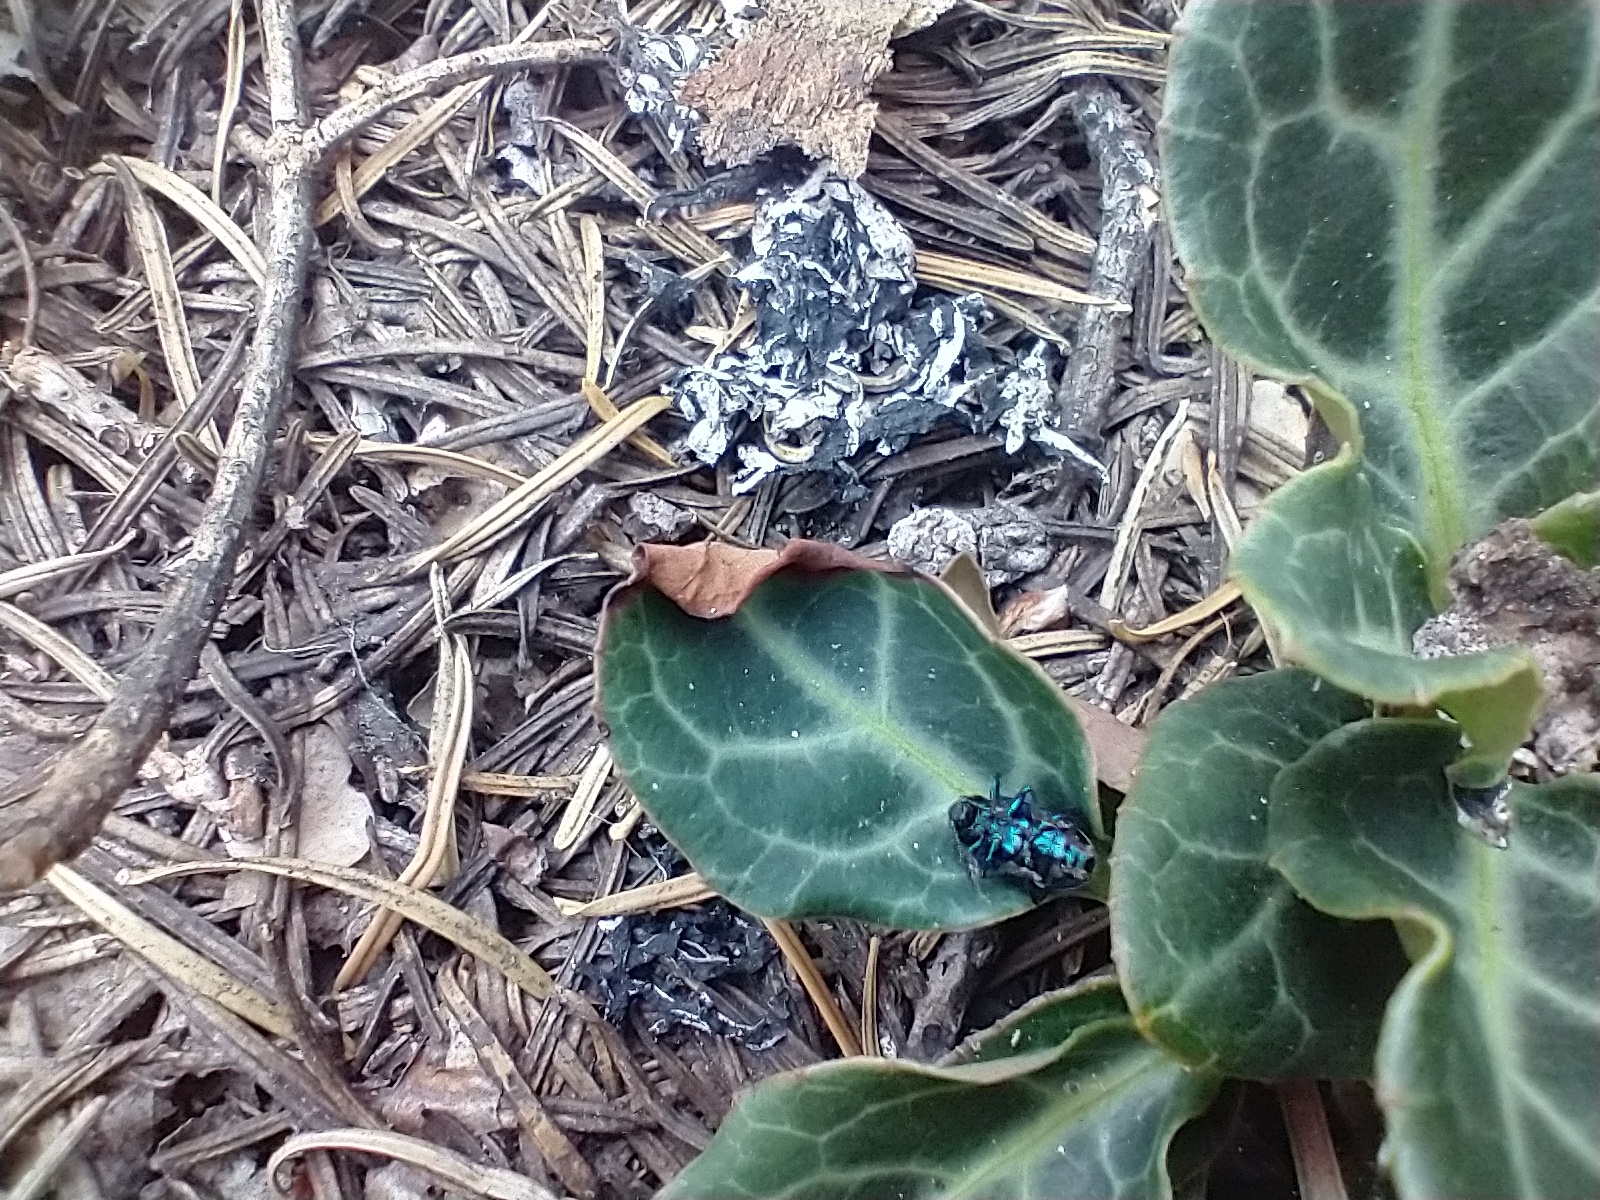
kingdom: Animalia
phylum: Arthropoda
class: Insecta
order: Coleoptera
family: Chrysomelidae
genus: Chrysochus
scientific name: Chrysochus cobaltinus
